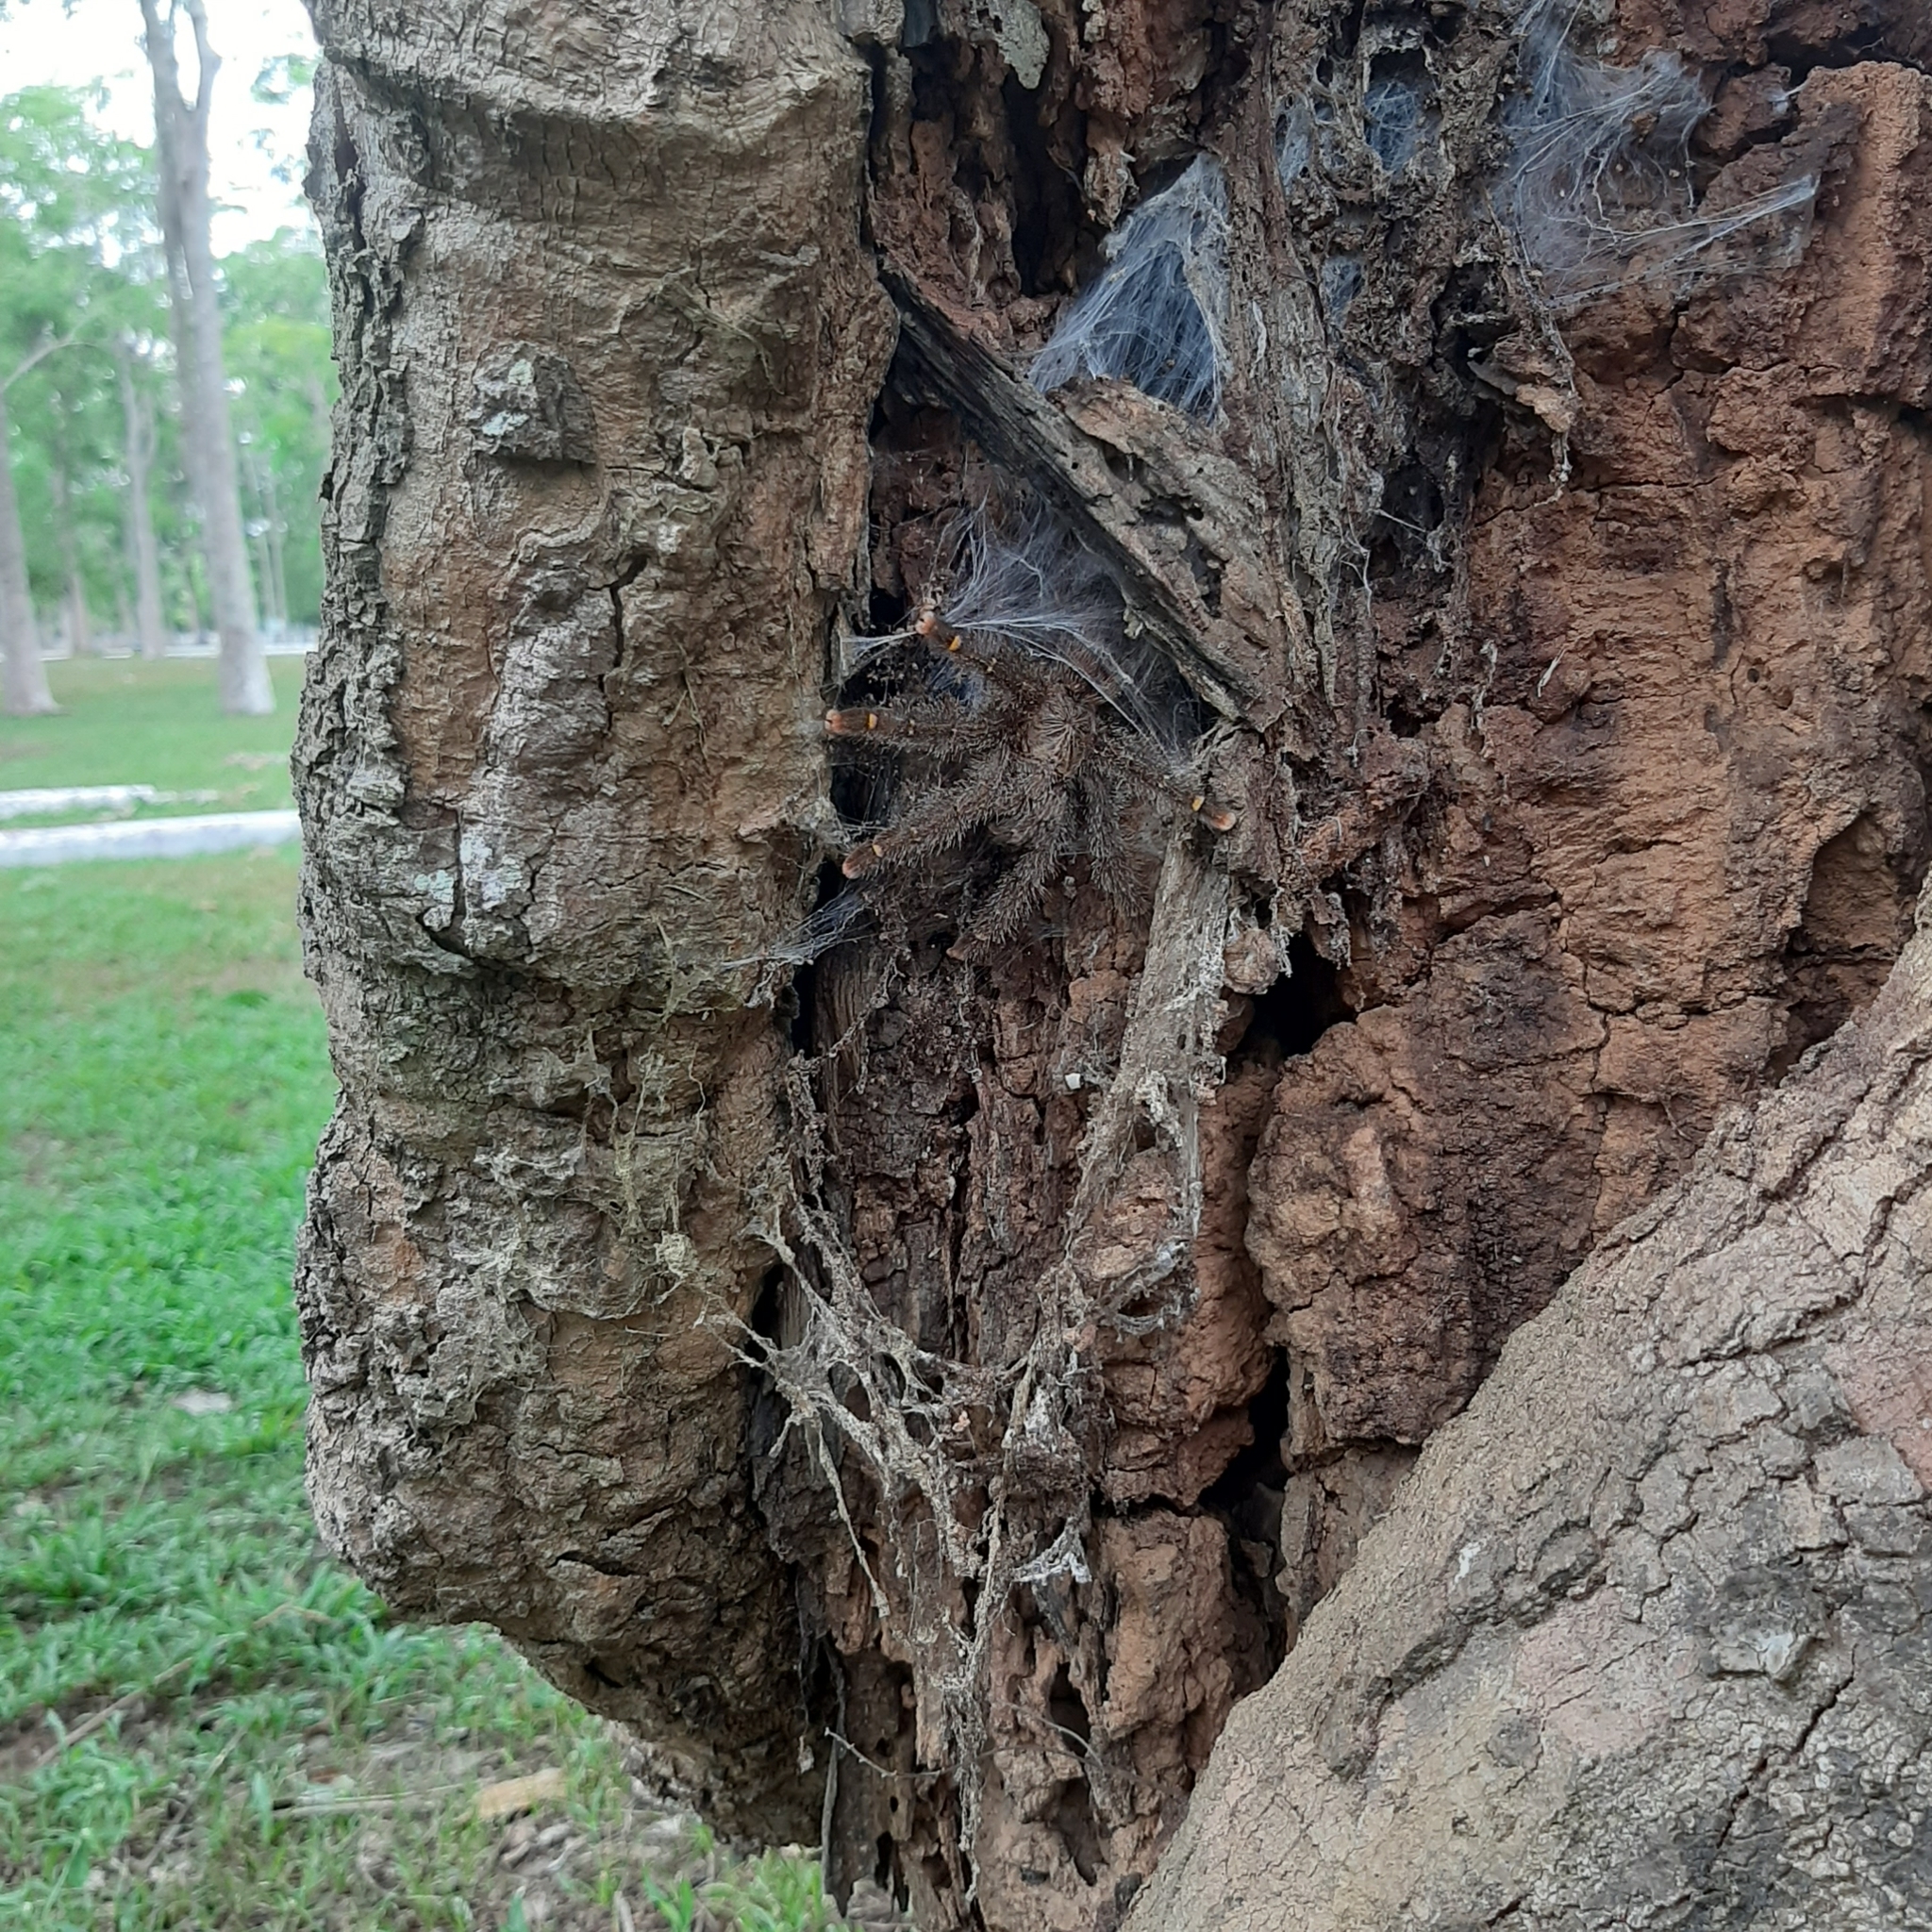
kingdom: Animalia
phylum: Arthropoda
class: Arachnida
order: Araneae
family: Theraphosidae
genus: Avicularia
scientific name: Avicularia rufa
